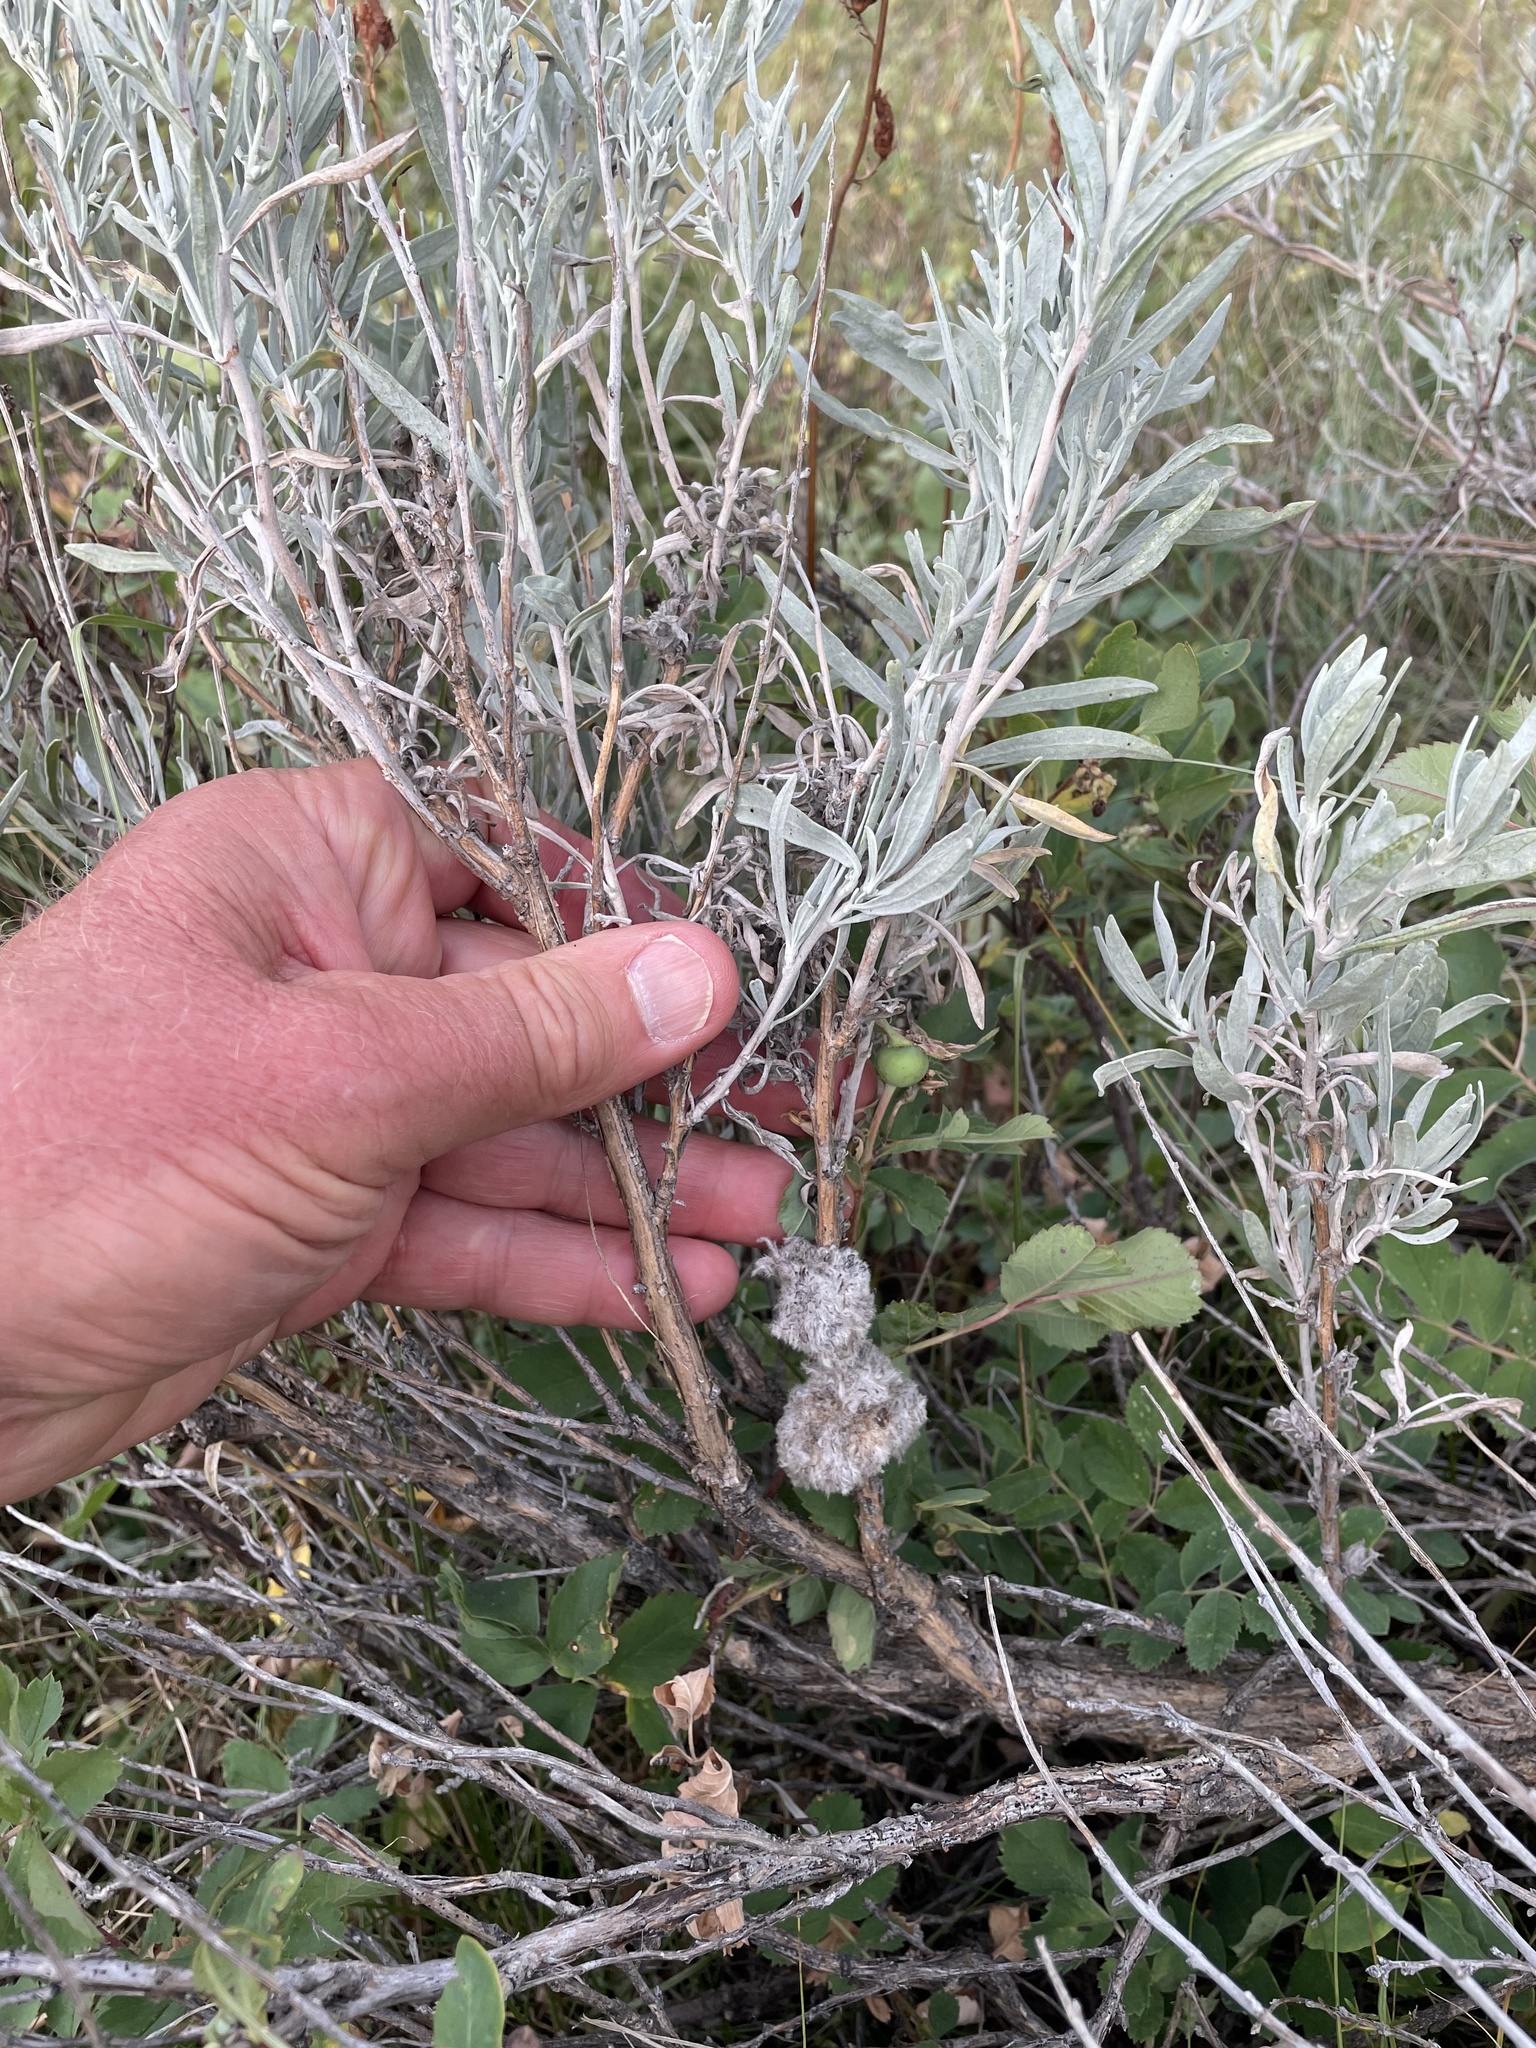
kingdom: Animalia
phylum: Arthropoda
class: Insecta
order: Diptera
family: Cecidomyiidae
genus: Rhopalomyia
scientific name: Rhopalomyia medusirrasa
